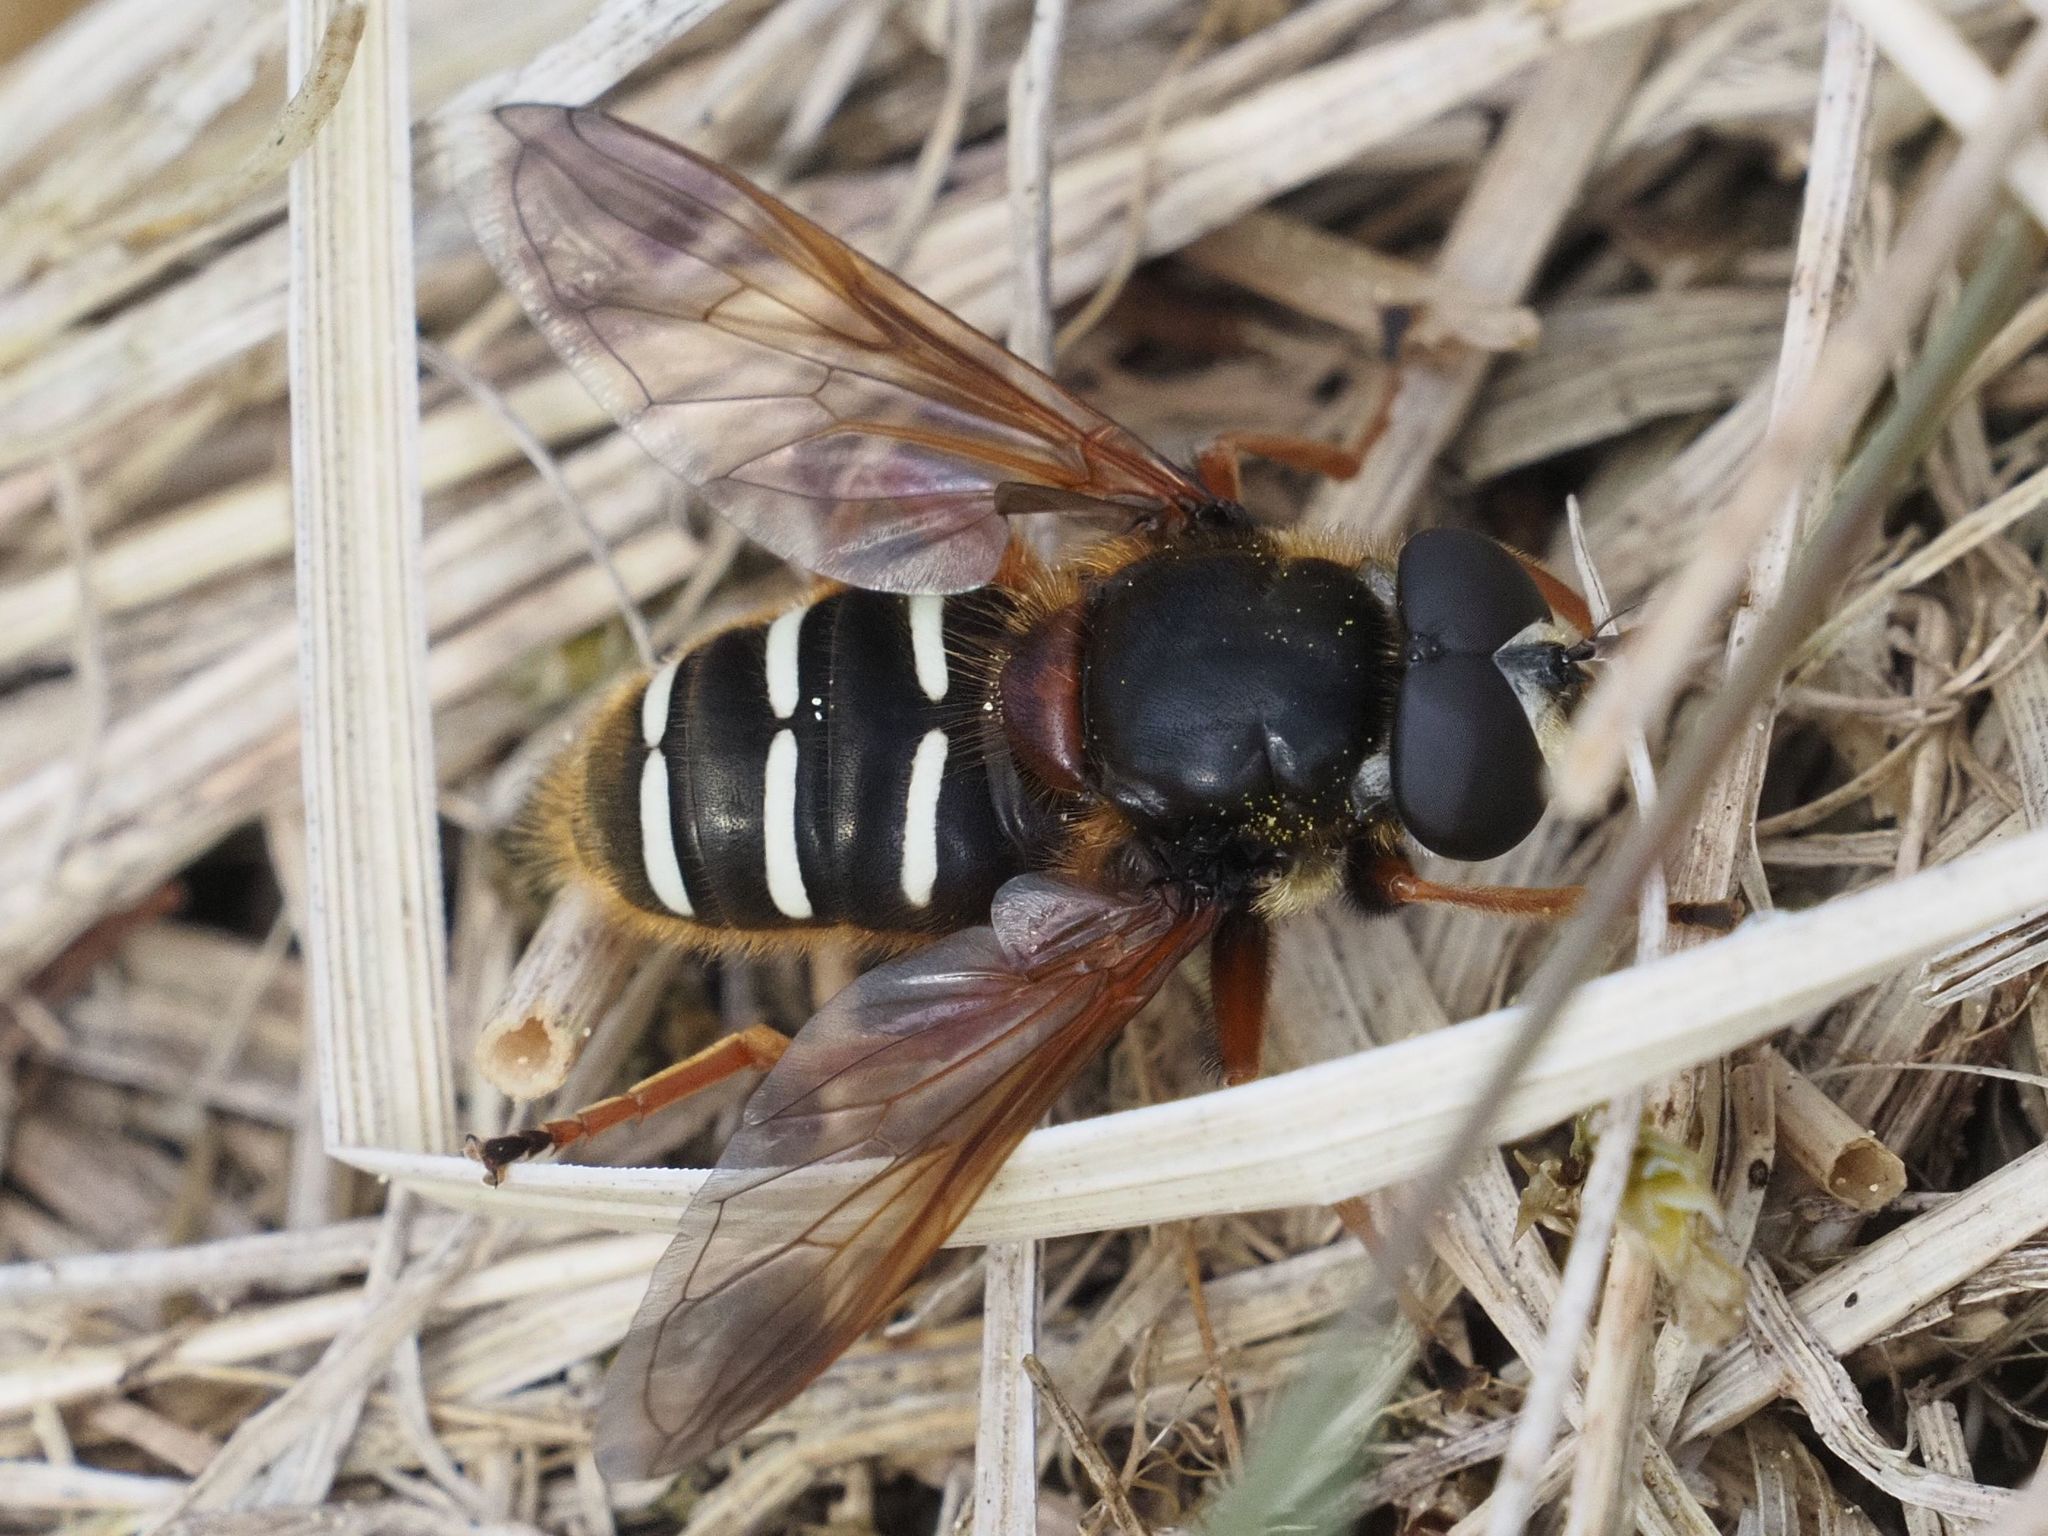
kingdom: Animalia
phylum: Arthropoda
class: Insecta
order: Diptera
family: Syrphidae
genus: Sericomyia
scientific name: Sericomyia lappona
